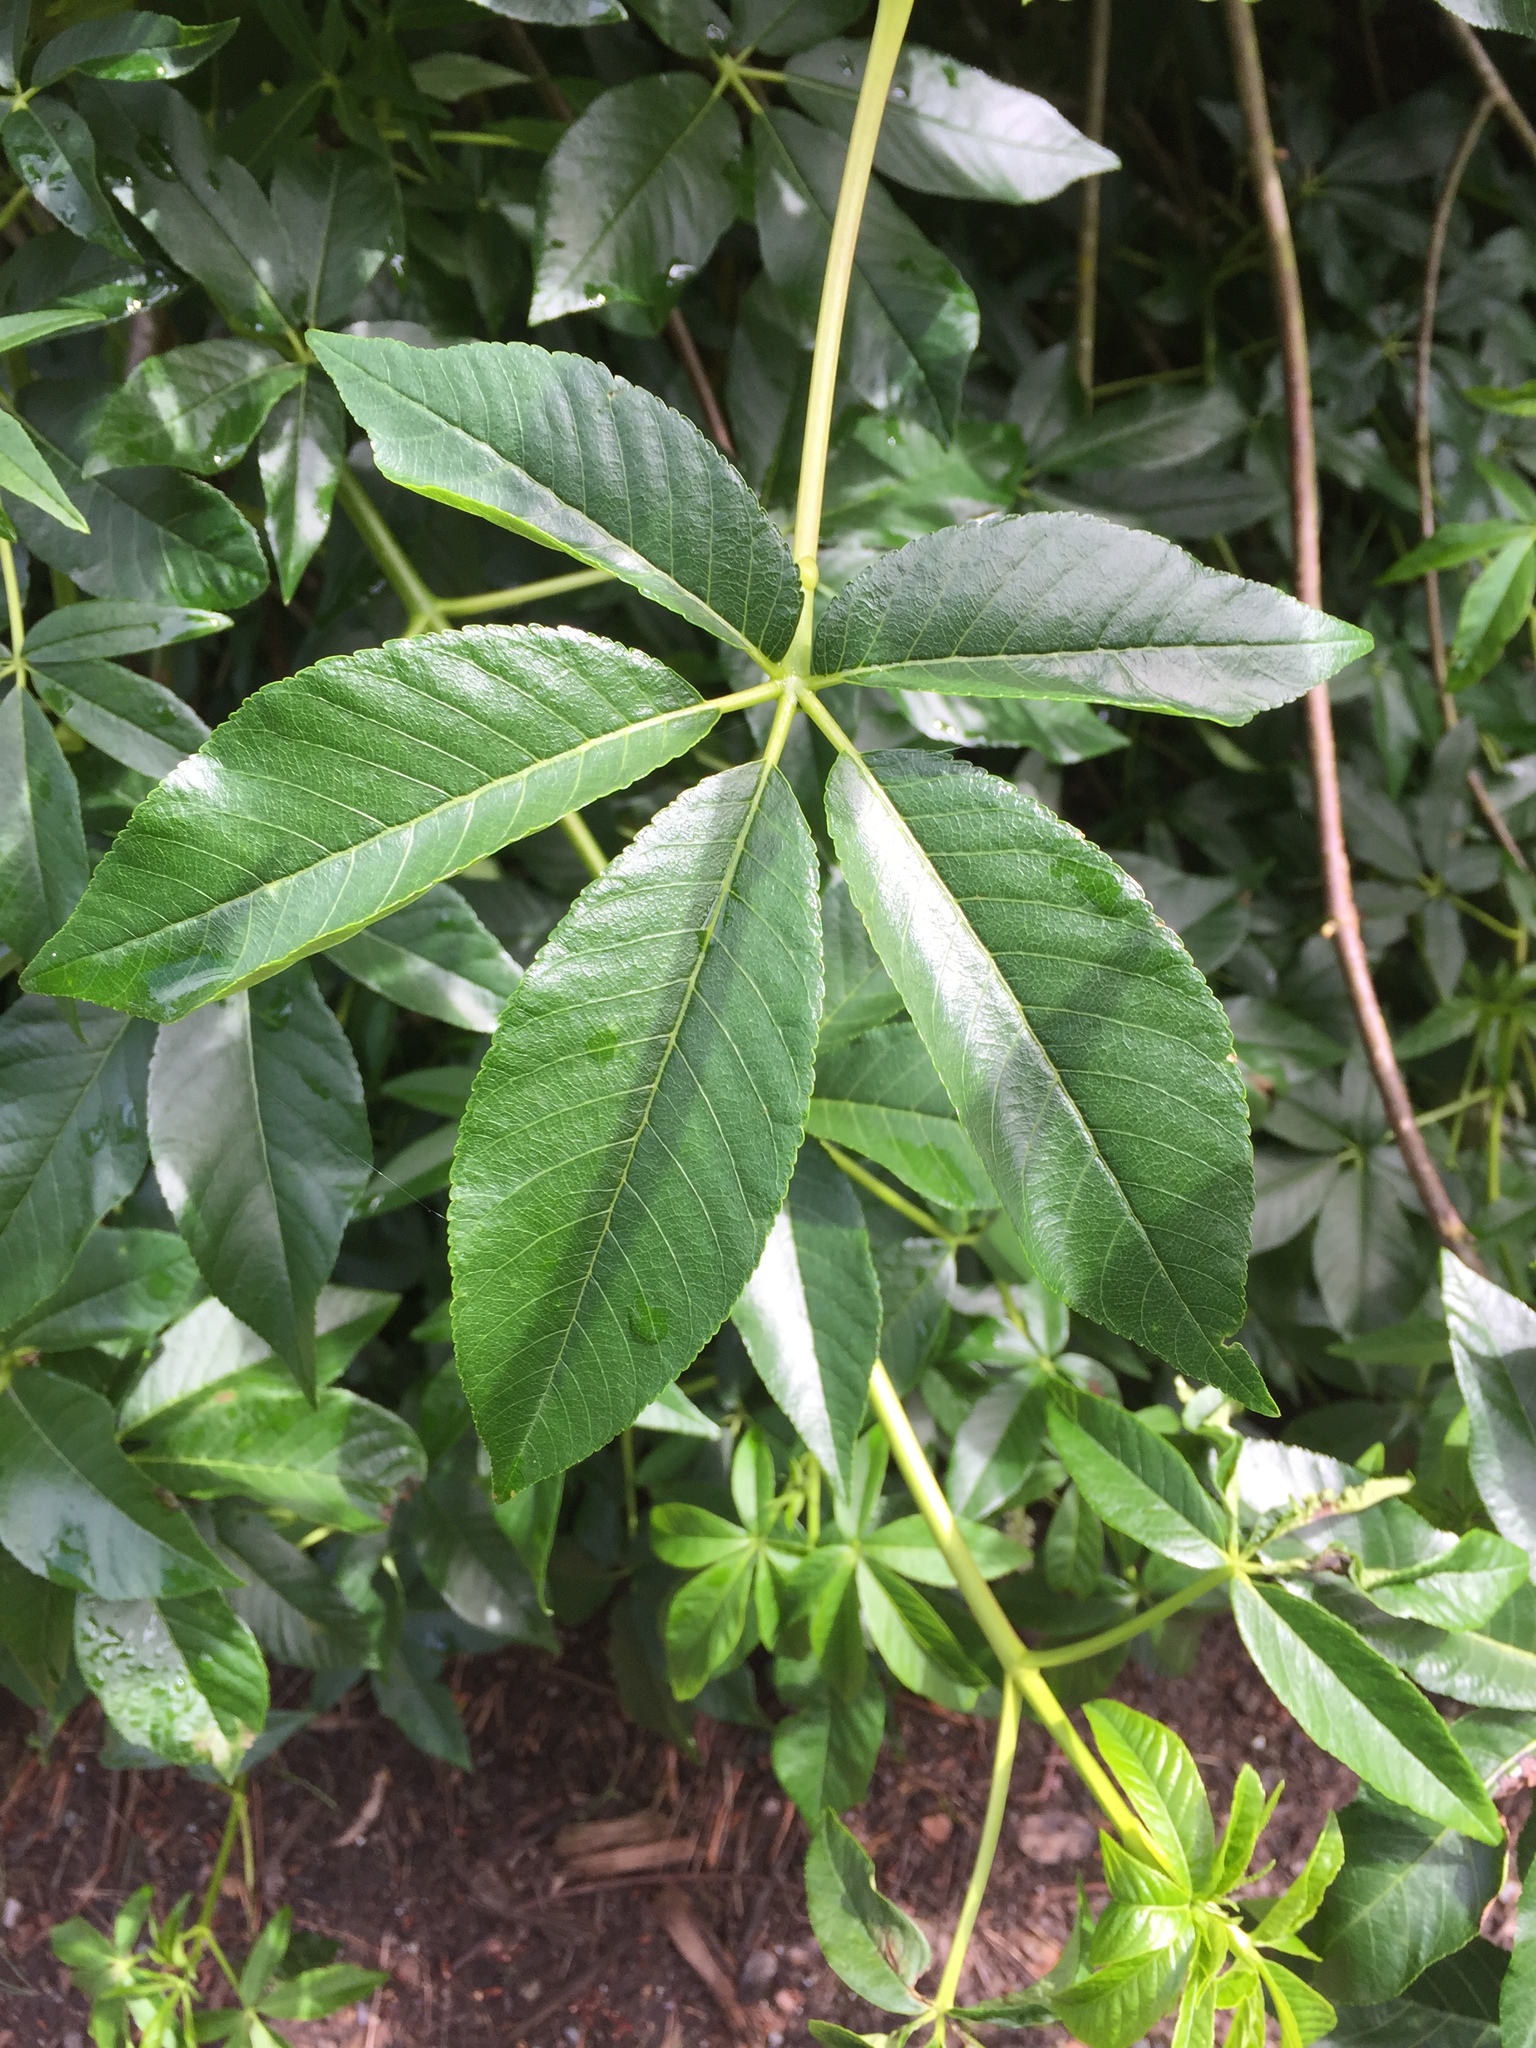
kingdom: Plantae
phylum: Tracheophyta
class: Magnoliopsida
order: Sapindales
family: Sapindaceae
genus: Aesculus
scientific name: Aesculus californica
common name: California buckeye
